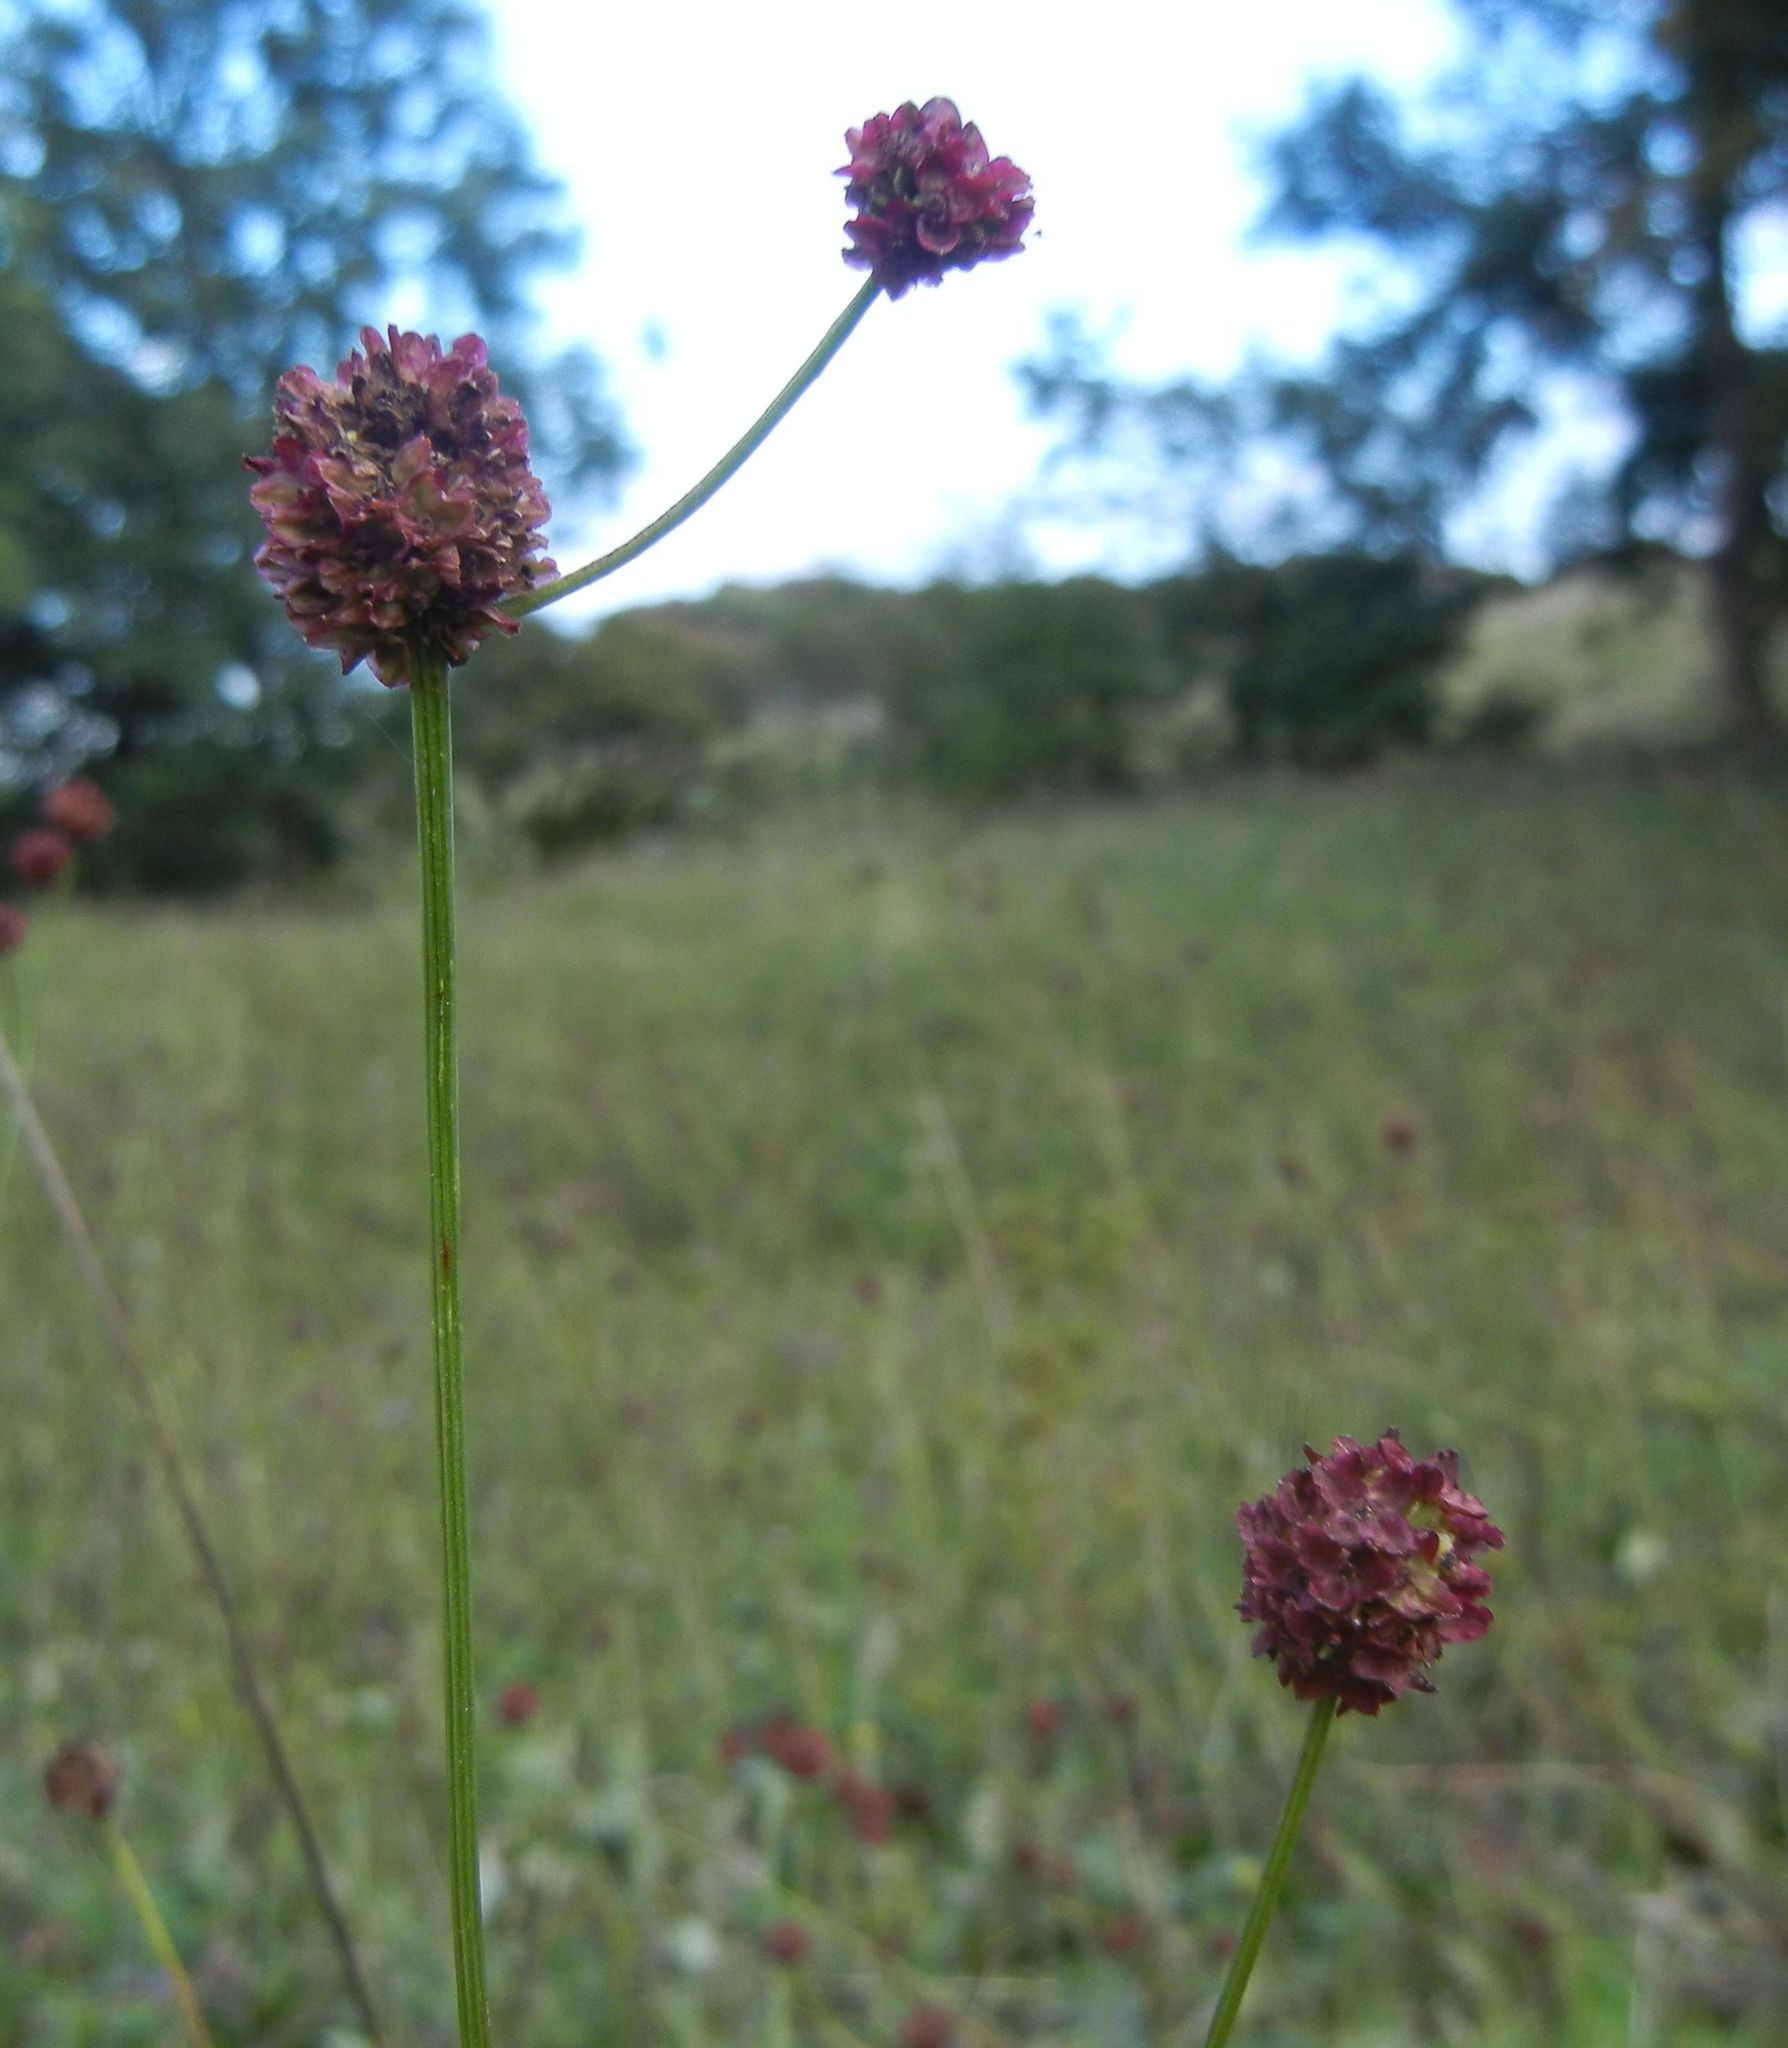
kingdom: Plantae
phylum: Tracheophyta
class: Magnoliopsida
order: Rosales
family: Rosaceae
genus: Sanguisorba
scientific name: Sanguisorba officinalis
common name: Great burnet
